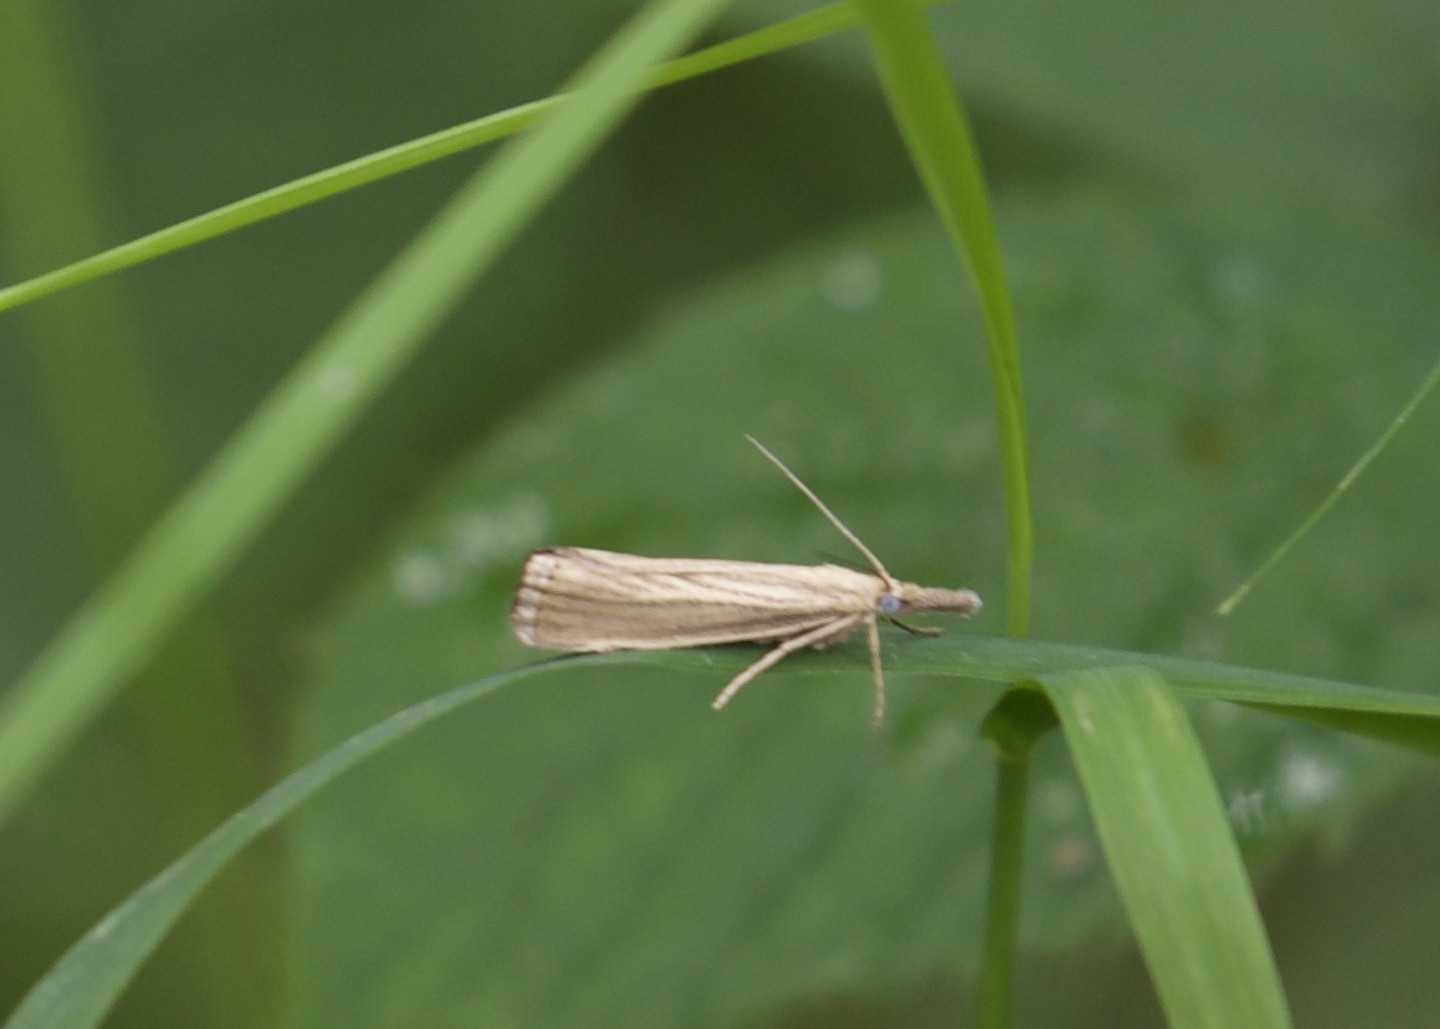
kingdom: Animalia
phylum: Arthropoda
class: Insecta
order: Lepidoptera
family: Crambidae
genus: Agriphila
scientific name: Agriphila straminella
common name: Straw grass-veneer
